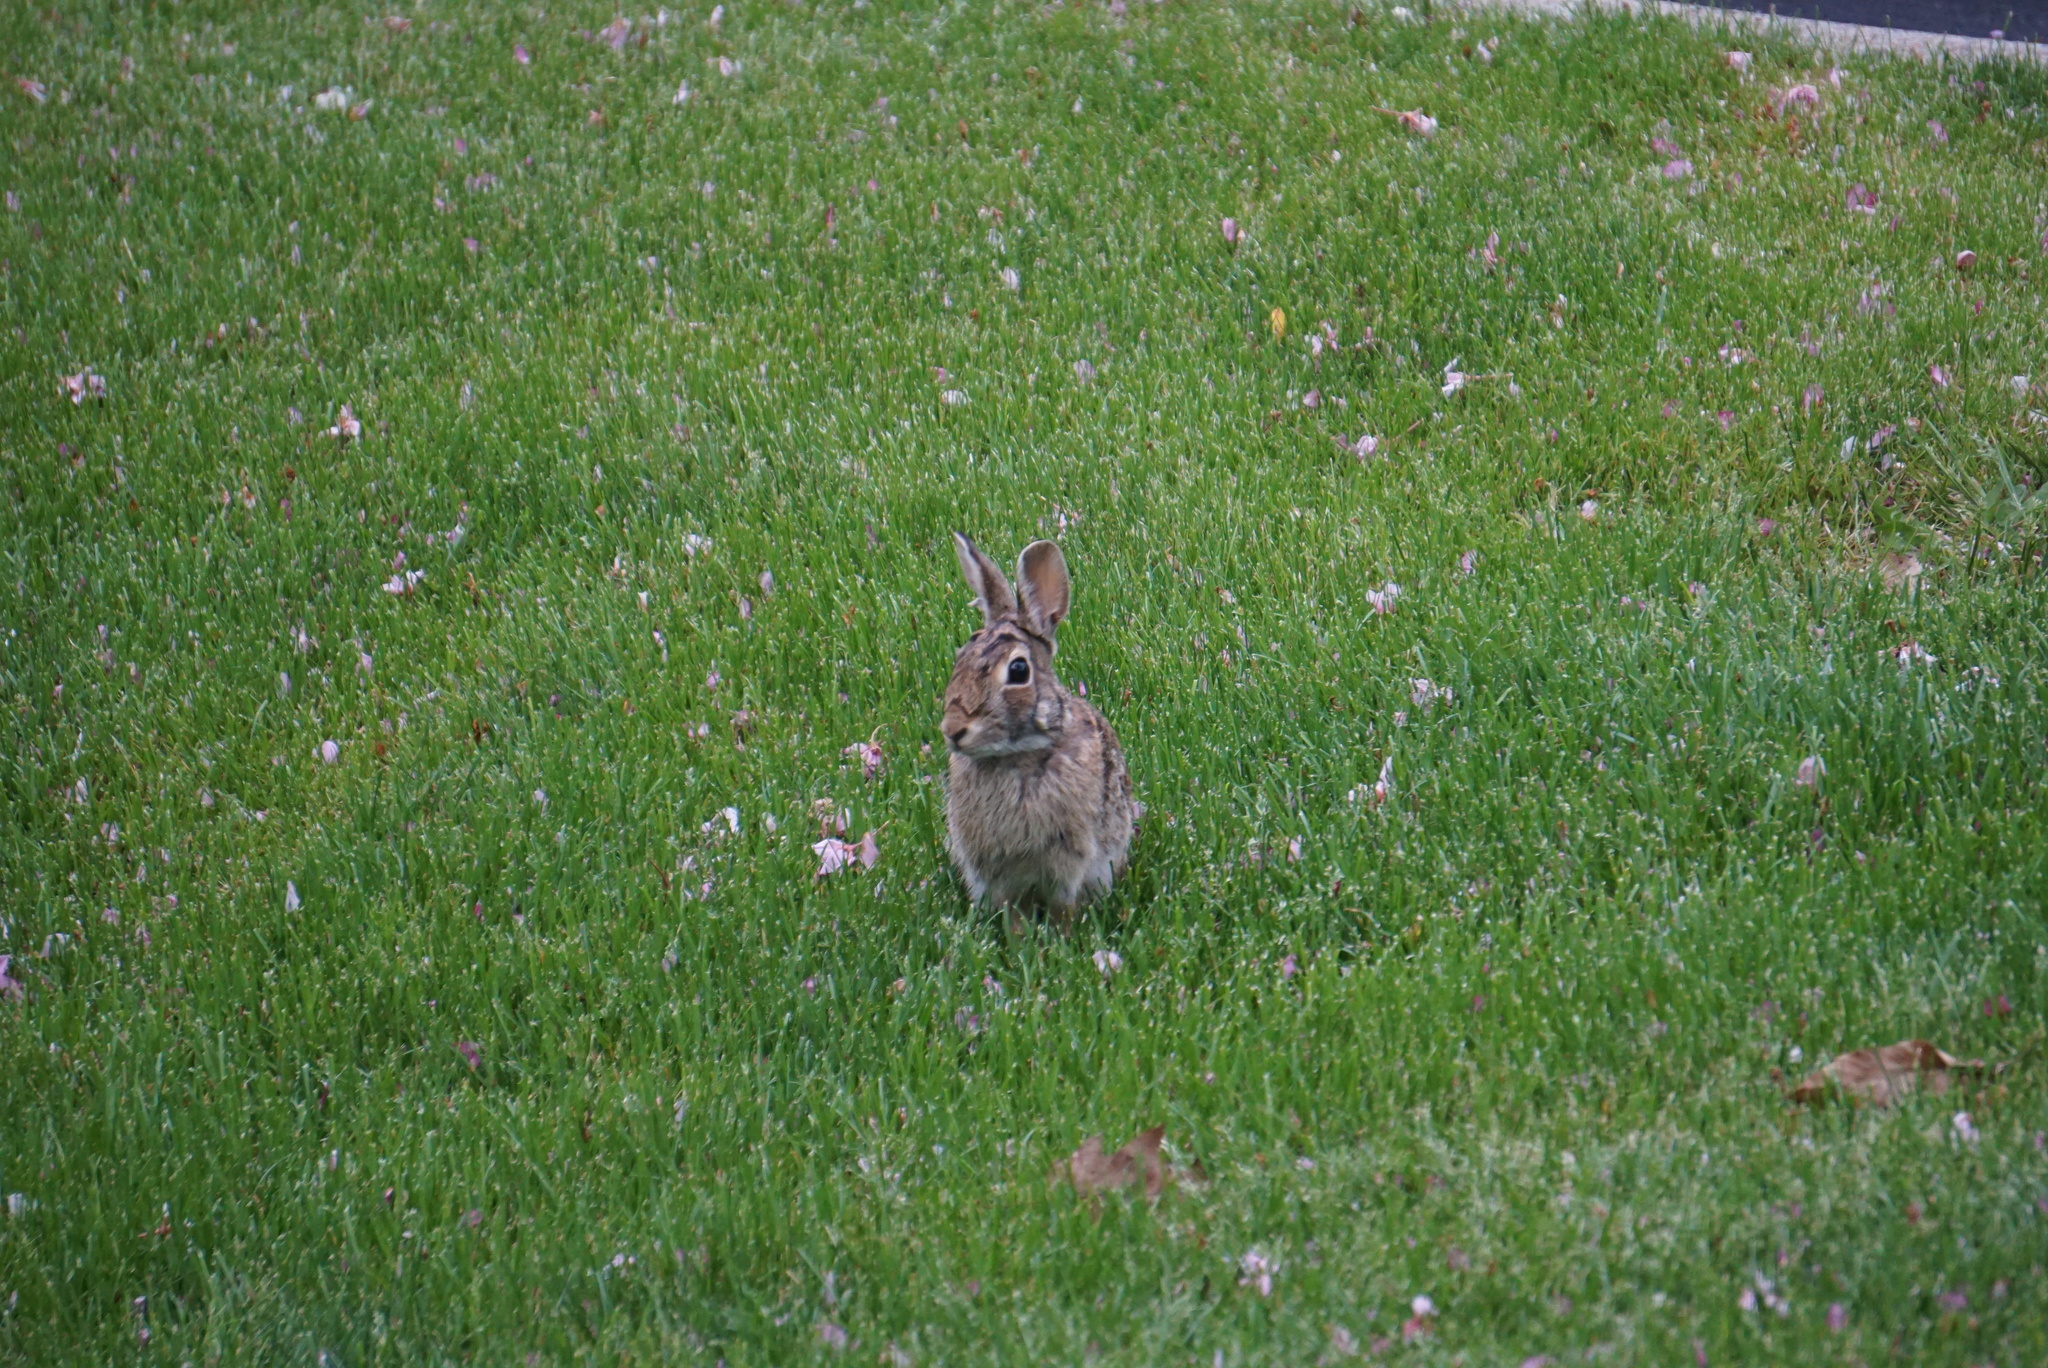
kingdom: Animalia
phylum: Chordata
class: Mammalia
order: Lagomorpha
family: Leporidae
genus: Sylvilagus
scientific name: Sylvilagus floridanus
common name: Eastern cottontail
